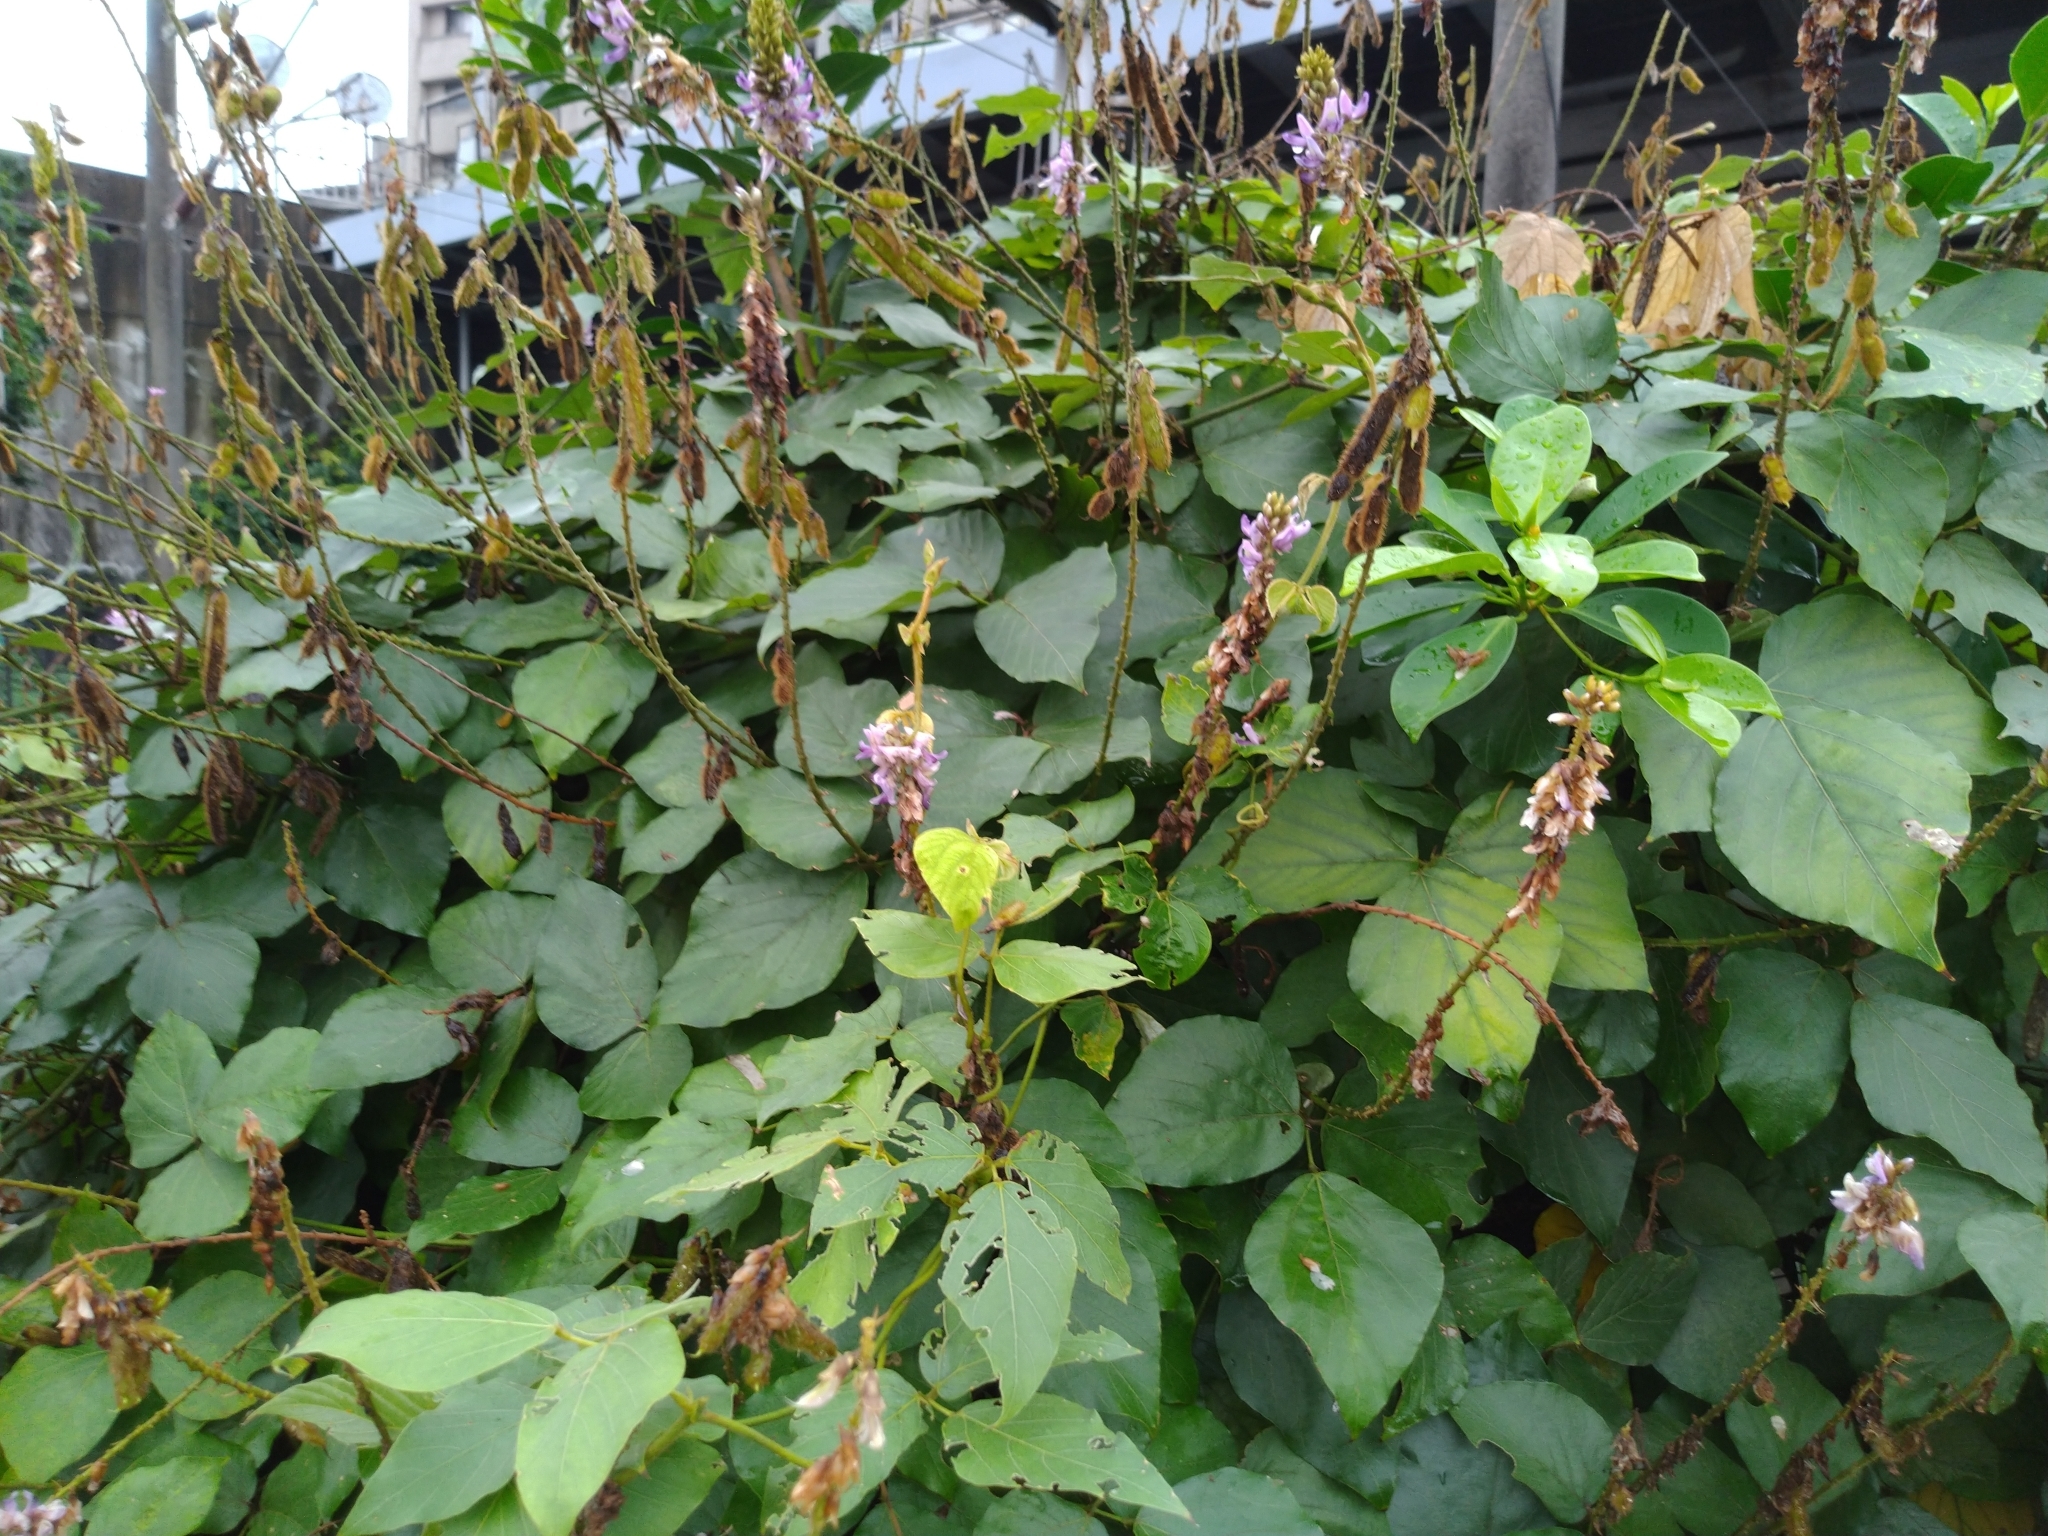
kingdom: Plantae
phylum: Tracheophyta
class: Magnoliopsida
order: Fabales
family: Fabaceae
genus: Pueraria
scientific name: Pueraria montana
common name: Kudzu
